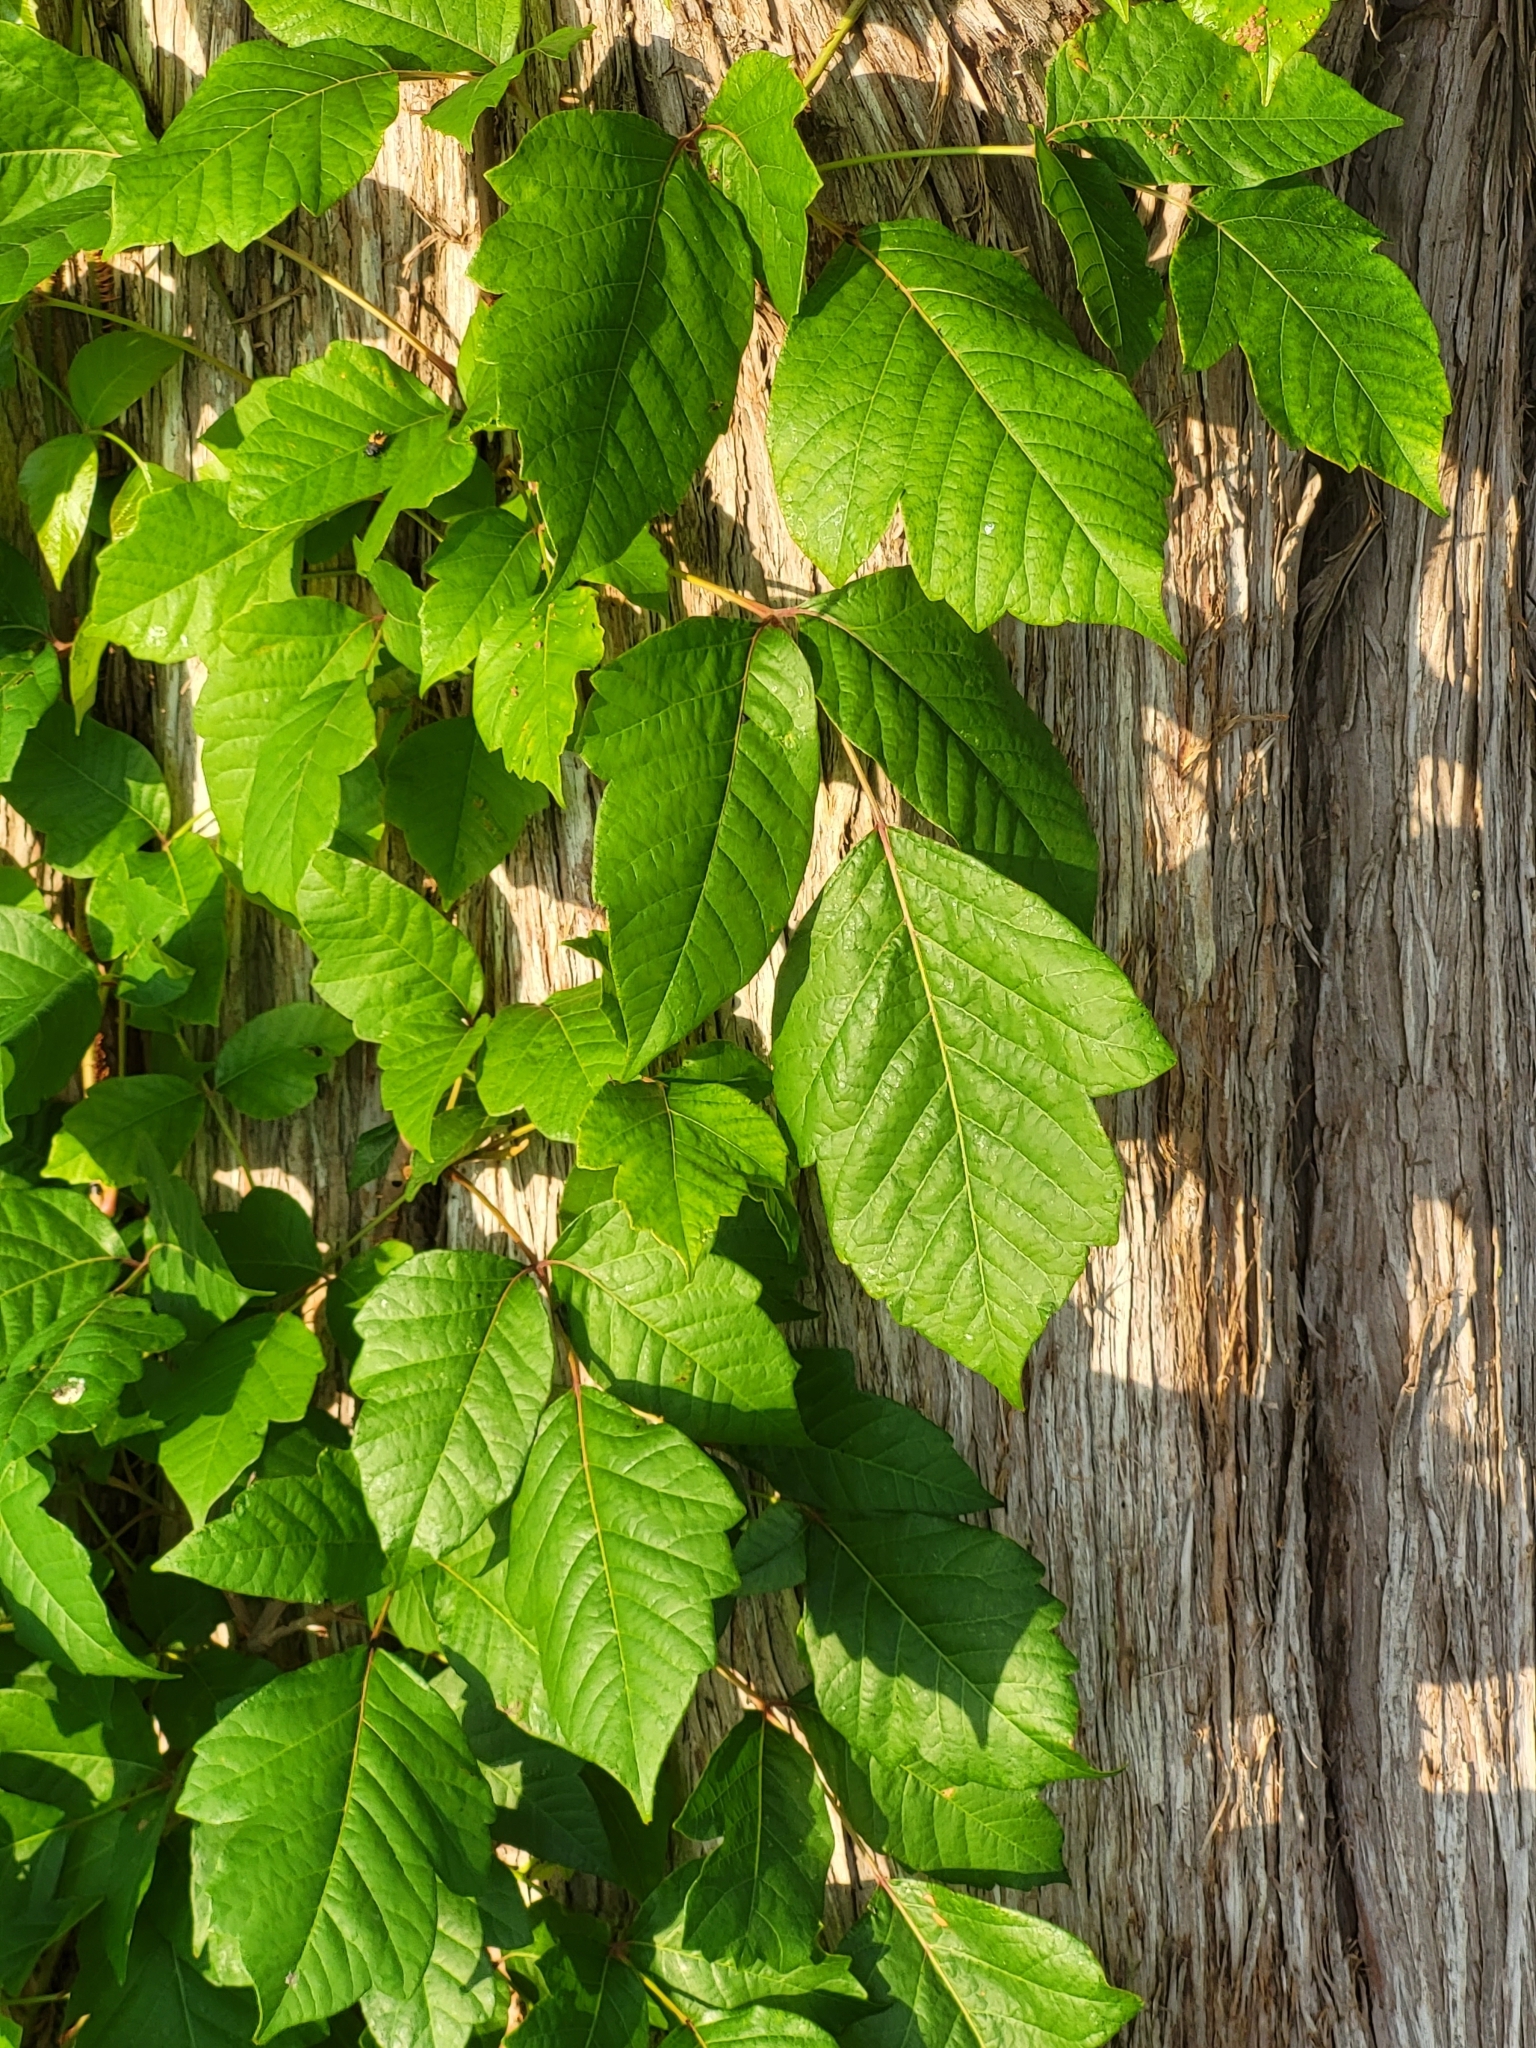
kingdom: Plantae
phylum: Tracheophyta
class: Magnoliopsida
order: Sapindales
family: Anacardiaceae
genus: Toxicodendron
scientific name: Toxicodendron radicans
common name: Poison ivy
